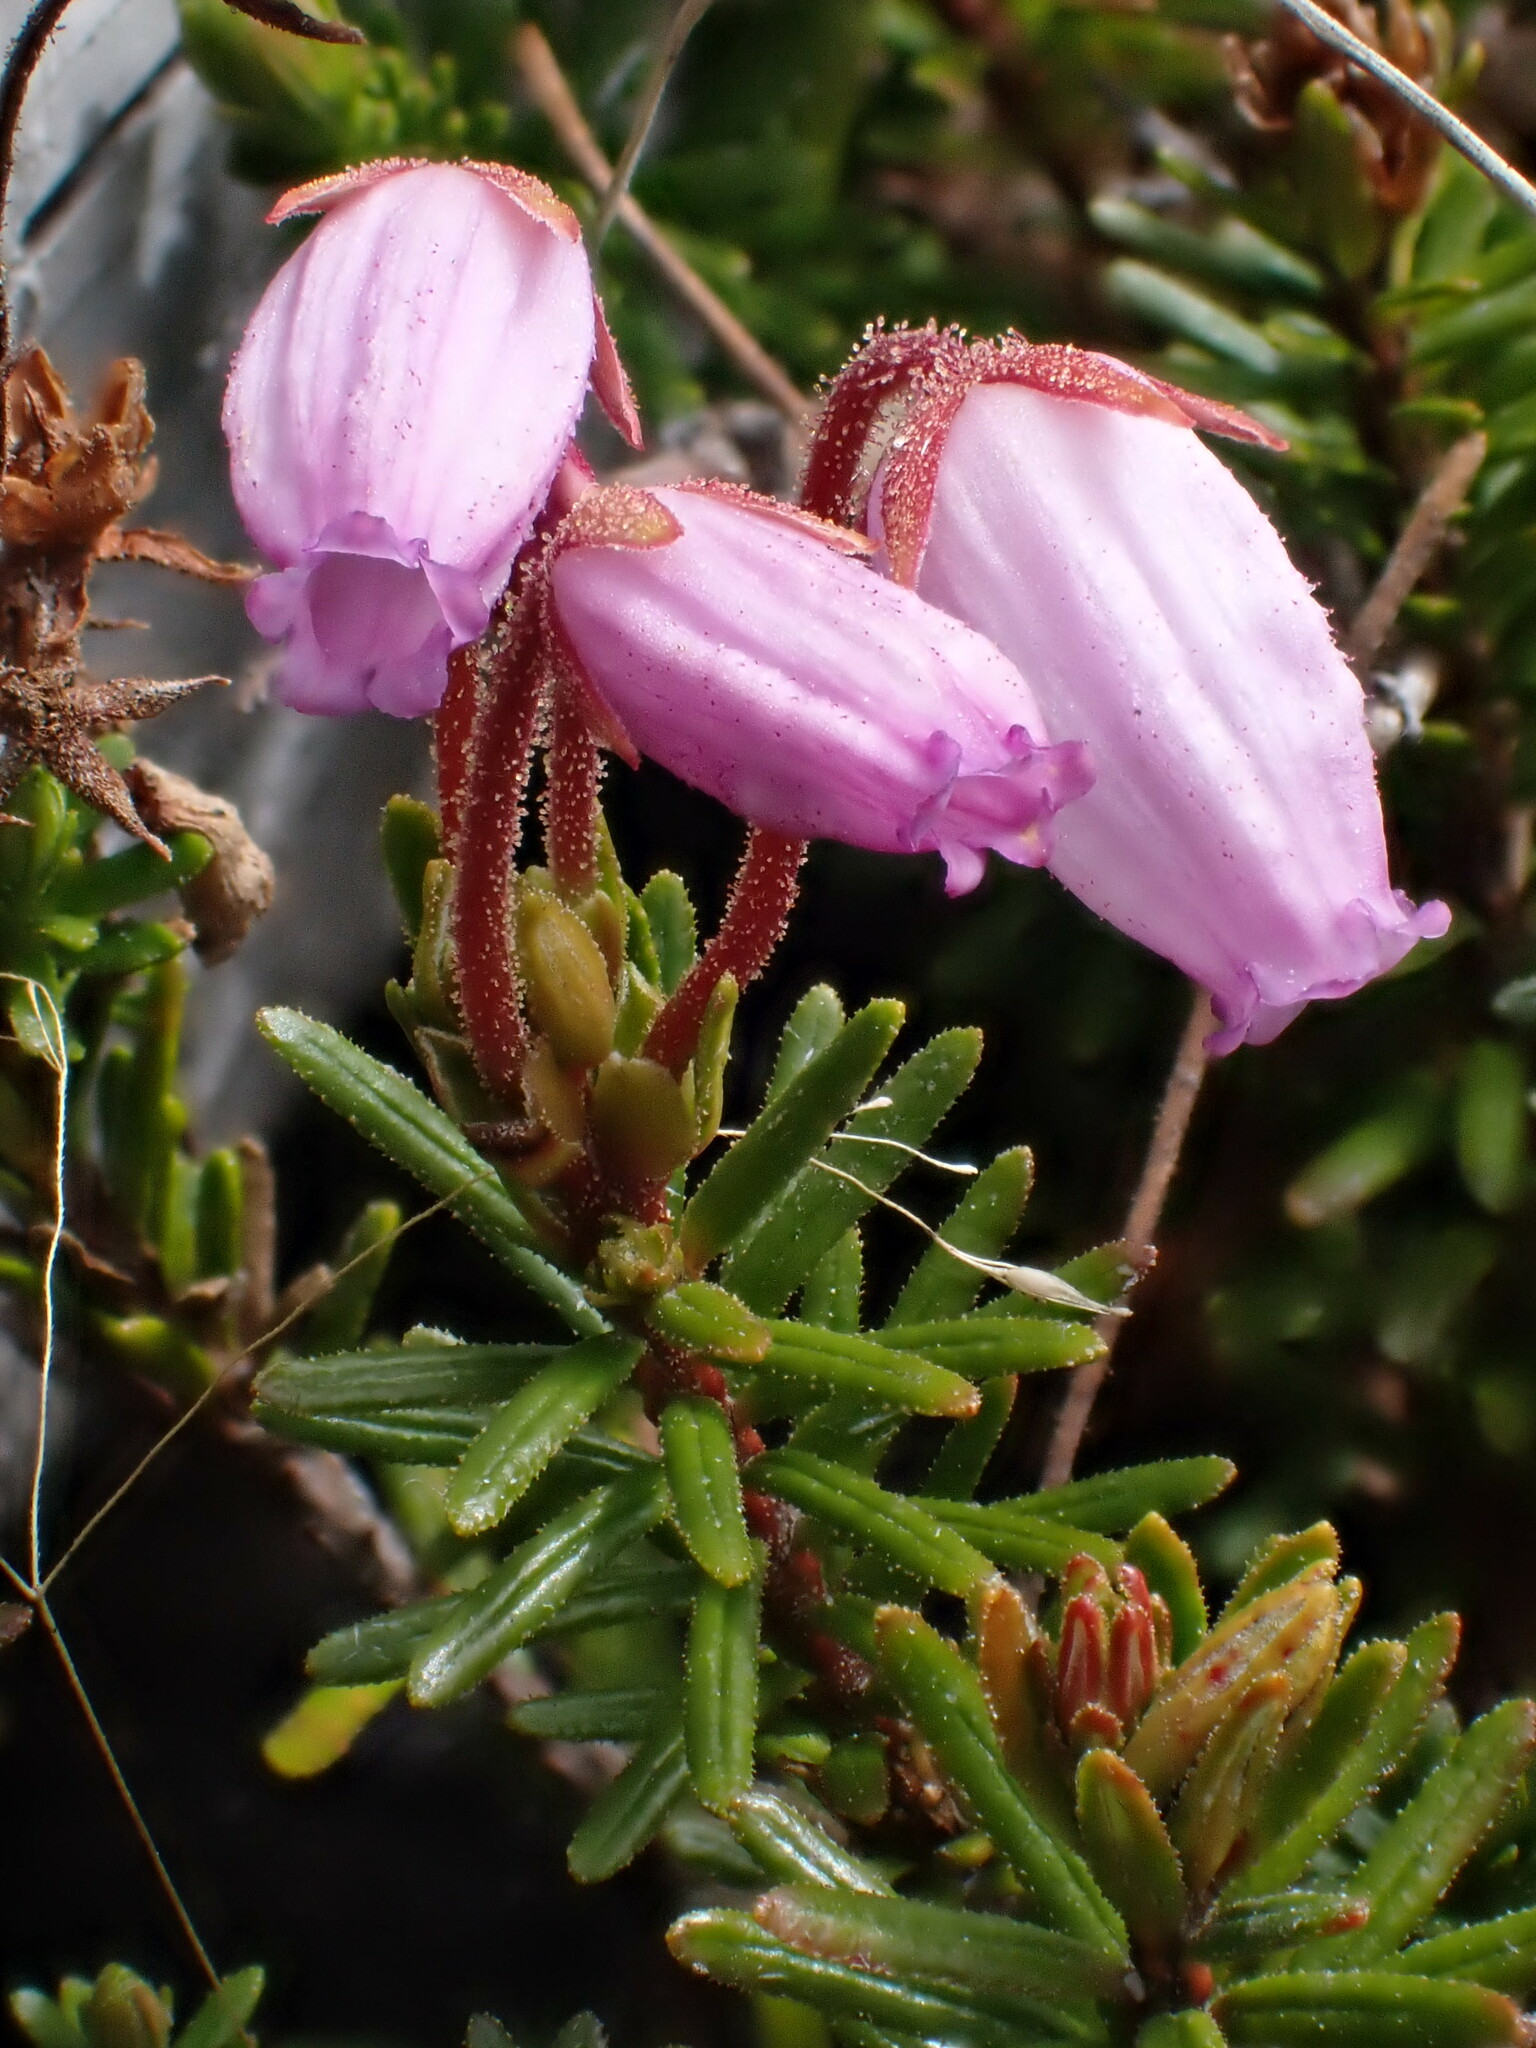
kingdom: Plantae
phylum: Tracheophyta
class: Magnoliopsida
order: Ericales
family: Ericaceae
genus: Phyllodoce
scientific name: Phyllodoce caerulea
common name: Blue heath
